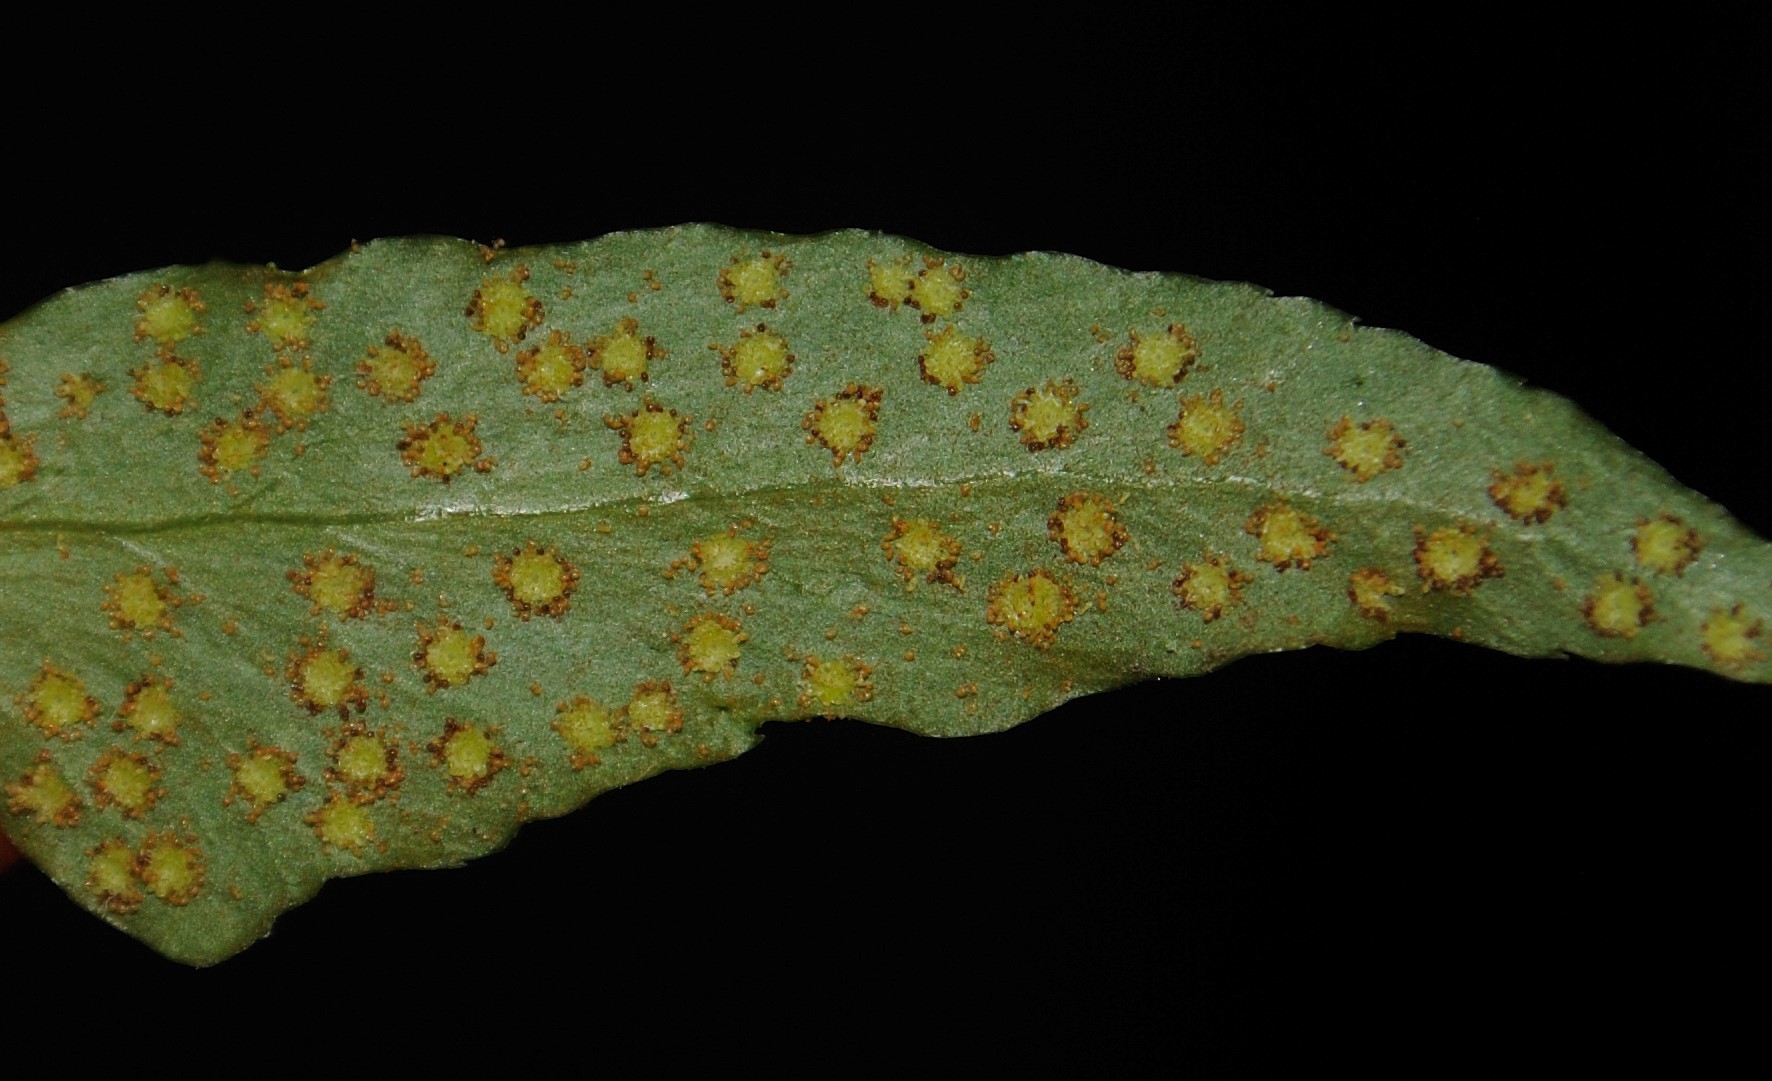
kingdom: Plantae
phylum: Tracheophyta
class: Polypodiopsida
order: Polypodiales
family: Dryopteridaceae
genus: Cyrtomium
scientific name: Cyrtomium fortunei
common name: Asian netvein hollyfern
